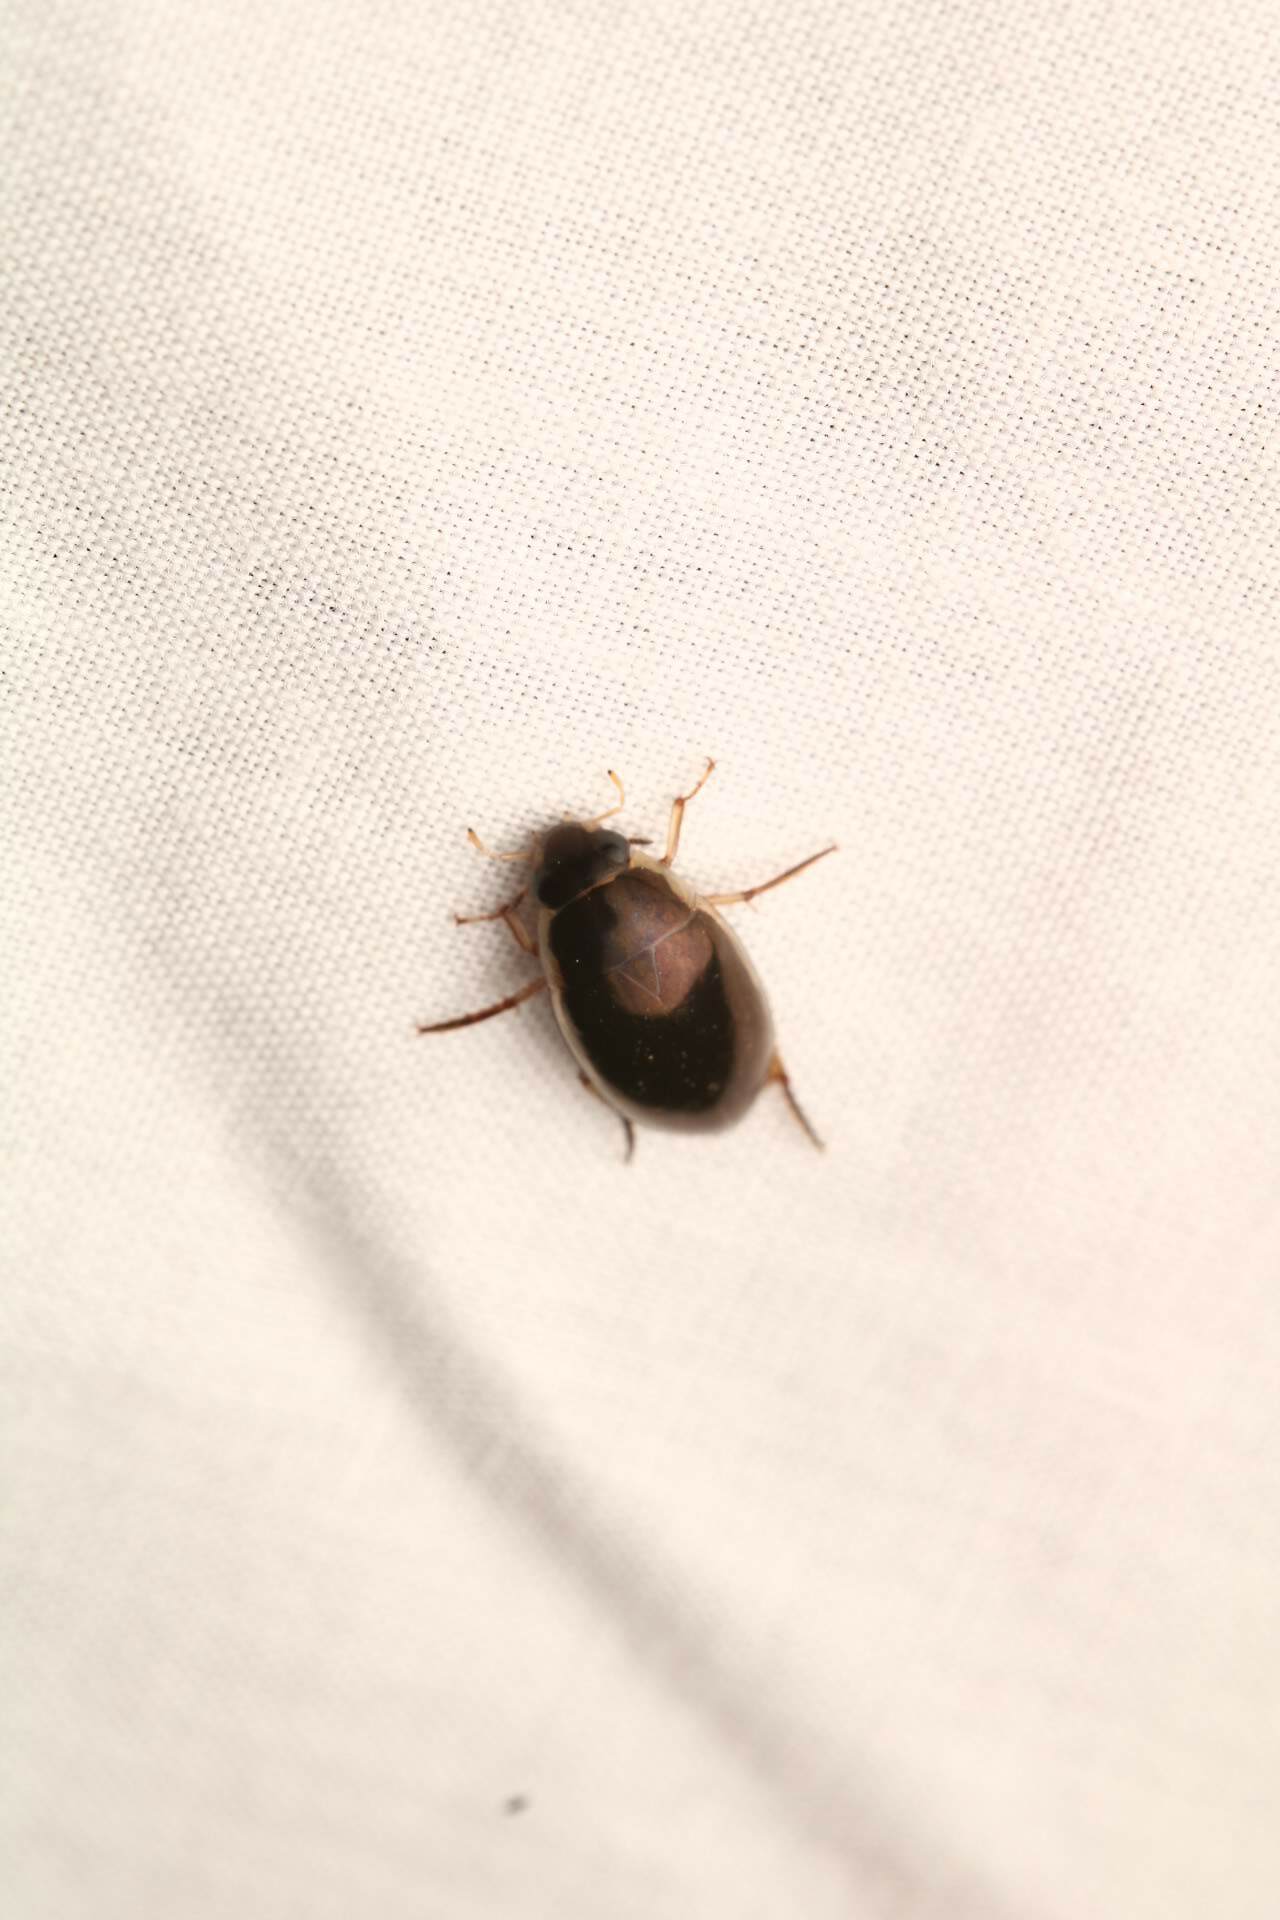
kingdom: Animalia
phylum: Arthropoda
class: Insecta
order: Coleoptera
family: Hydrophilidae
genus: Tropisternus
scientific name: Tropisternus lateralis
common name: Lateral-banded water scavenger beetle
